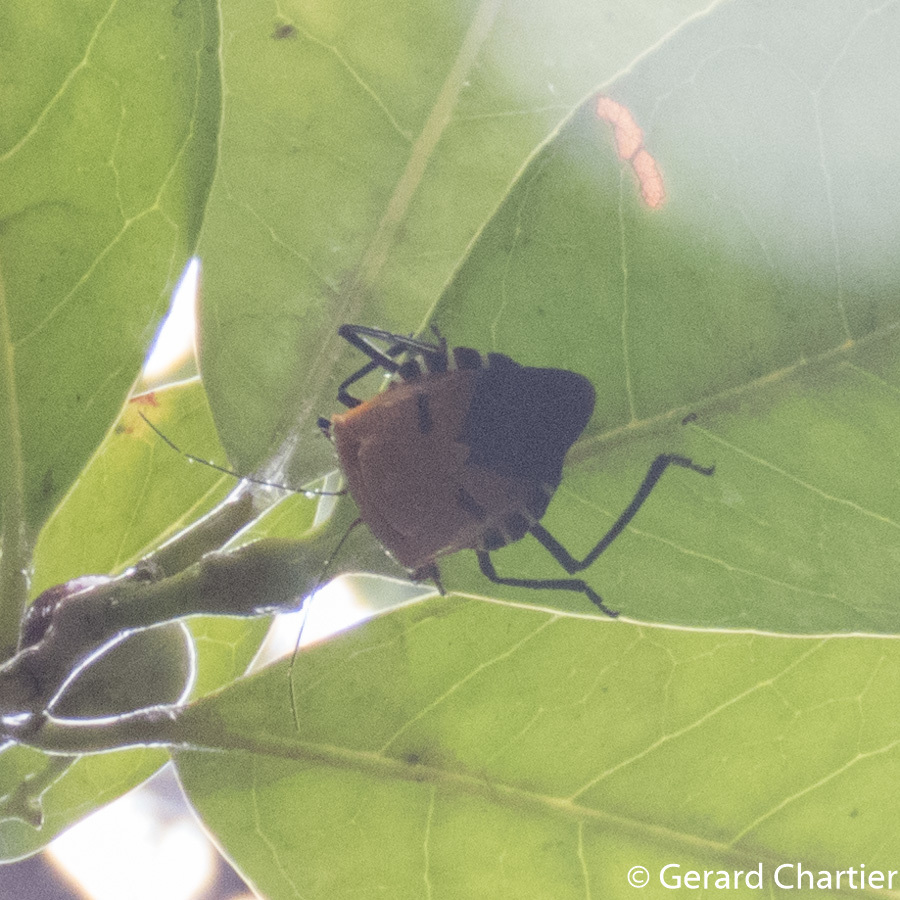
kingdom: Animalia
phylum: Arthropoda
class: Insecta
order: Hemiptera
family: Pentatomidae
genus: Catacanthus
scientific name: Catacanthus incarnatus
